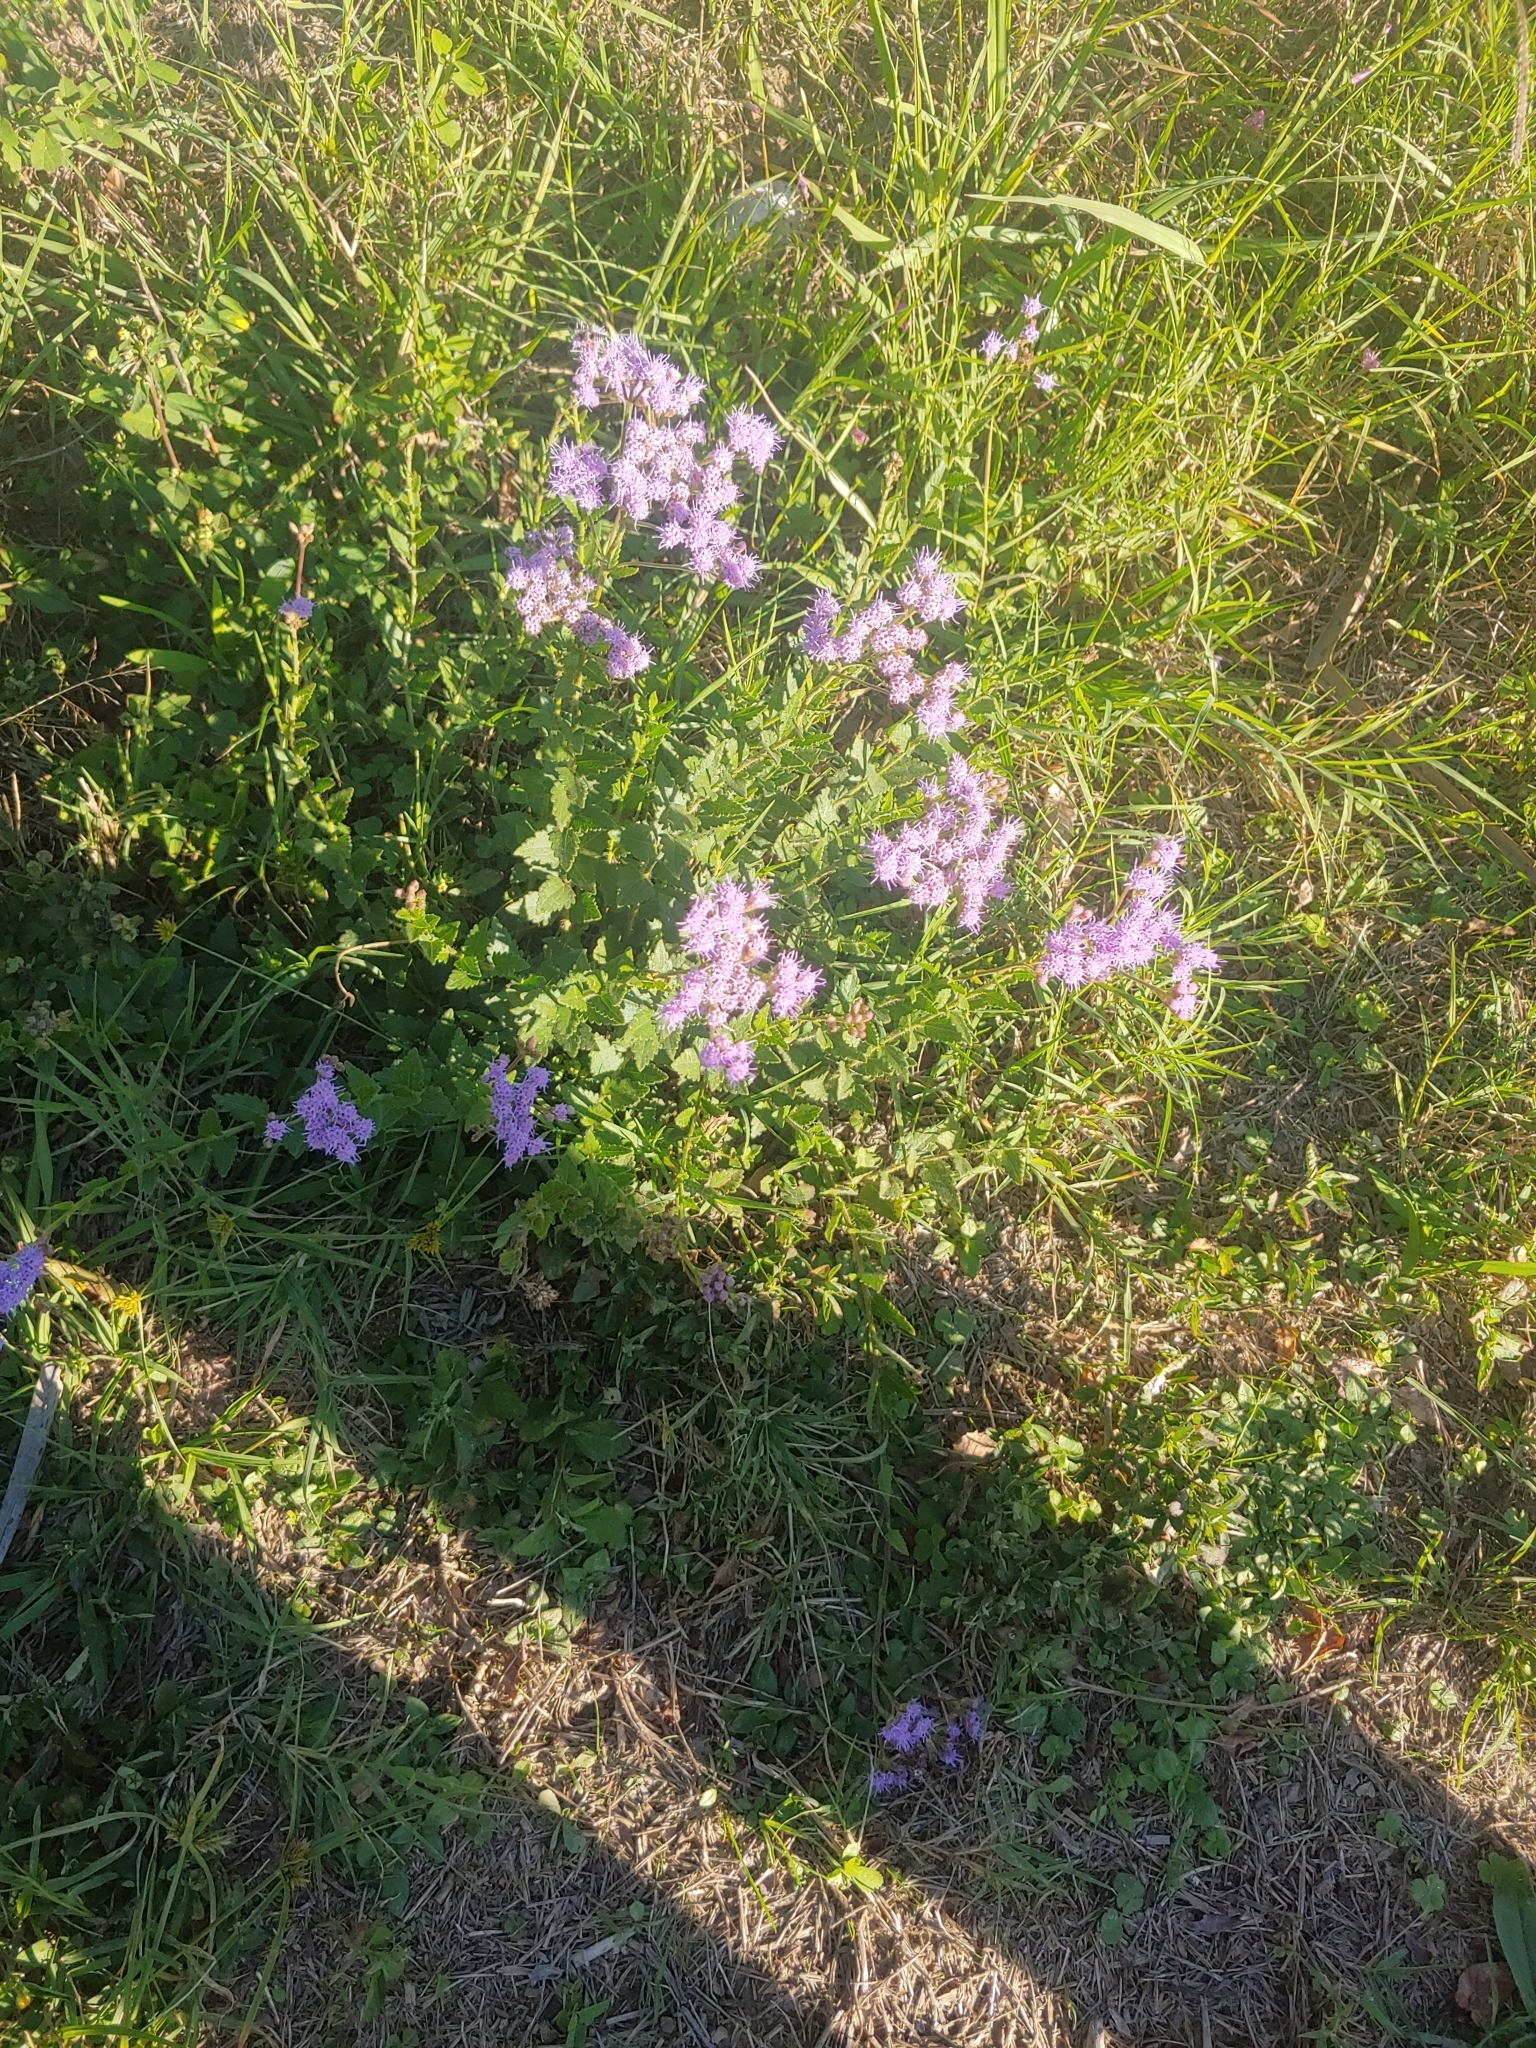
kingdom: Plantae
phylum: Tracheophyta
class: Magnoliopsida
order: Asterales
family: Asteraceae
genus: Chromolaena
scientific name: Chromolaena hirsuta
